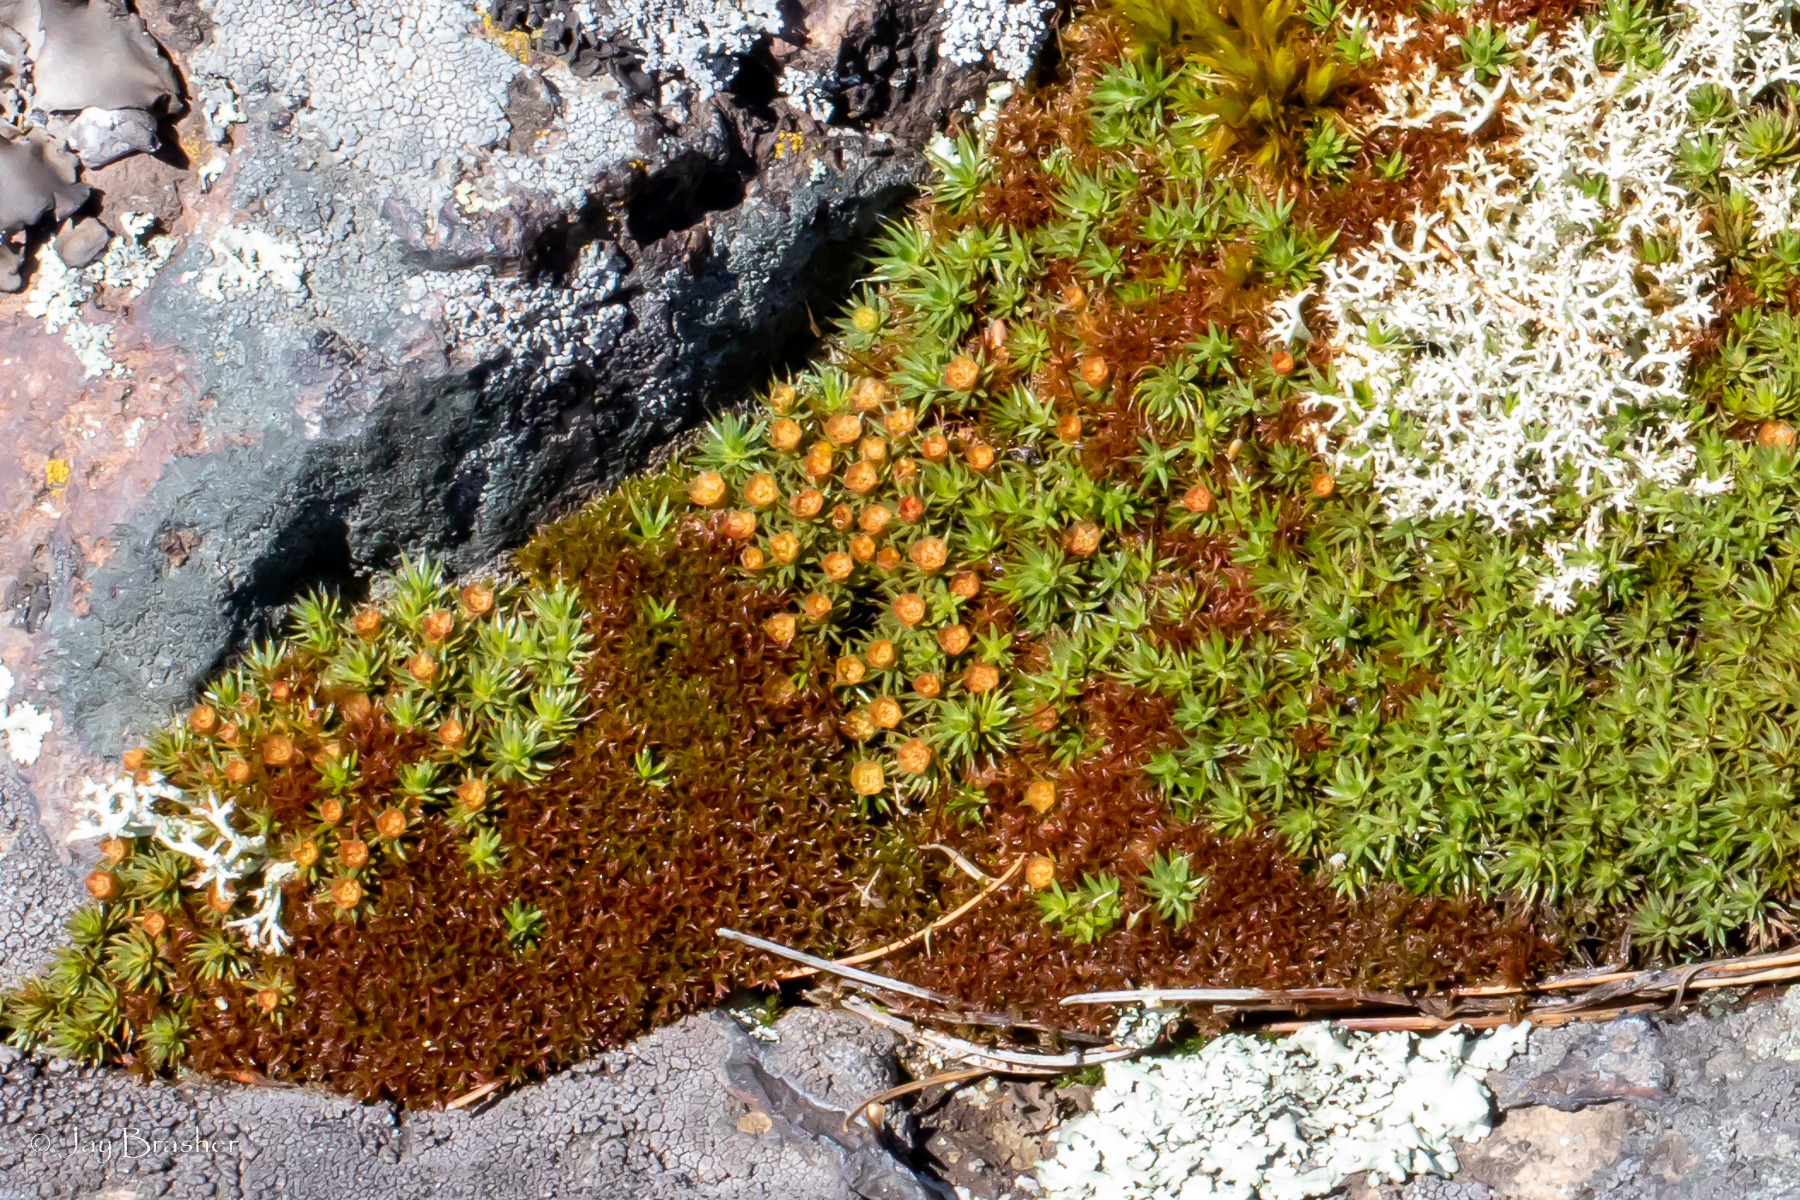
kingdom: Plantae
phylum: Bryophyta
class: Polytrichopsida
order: Polytrichales
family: Polytrichaceae
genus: Polytrichum
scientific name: Polytrichum piliferum
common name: Bristly haircap
